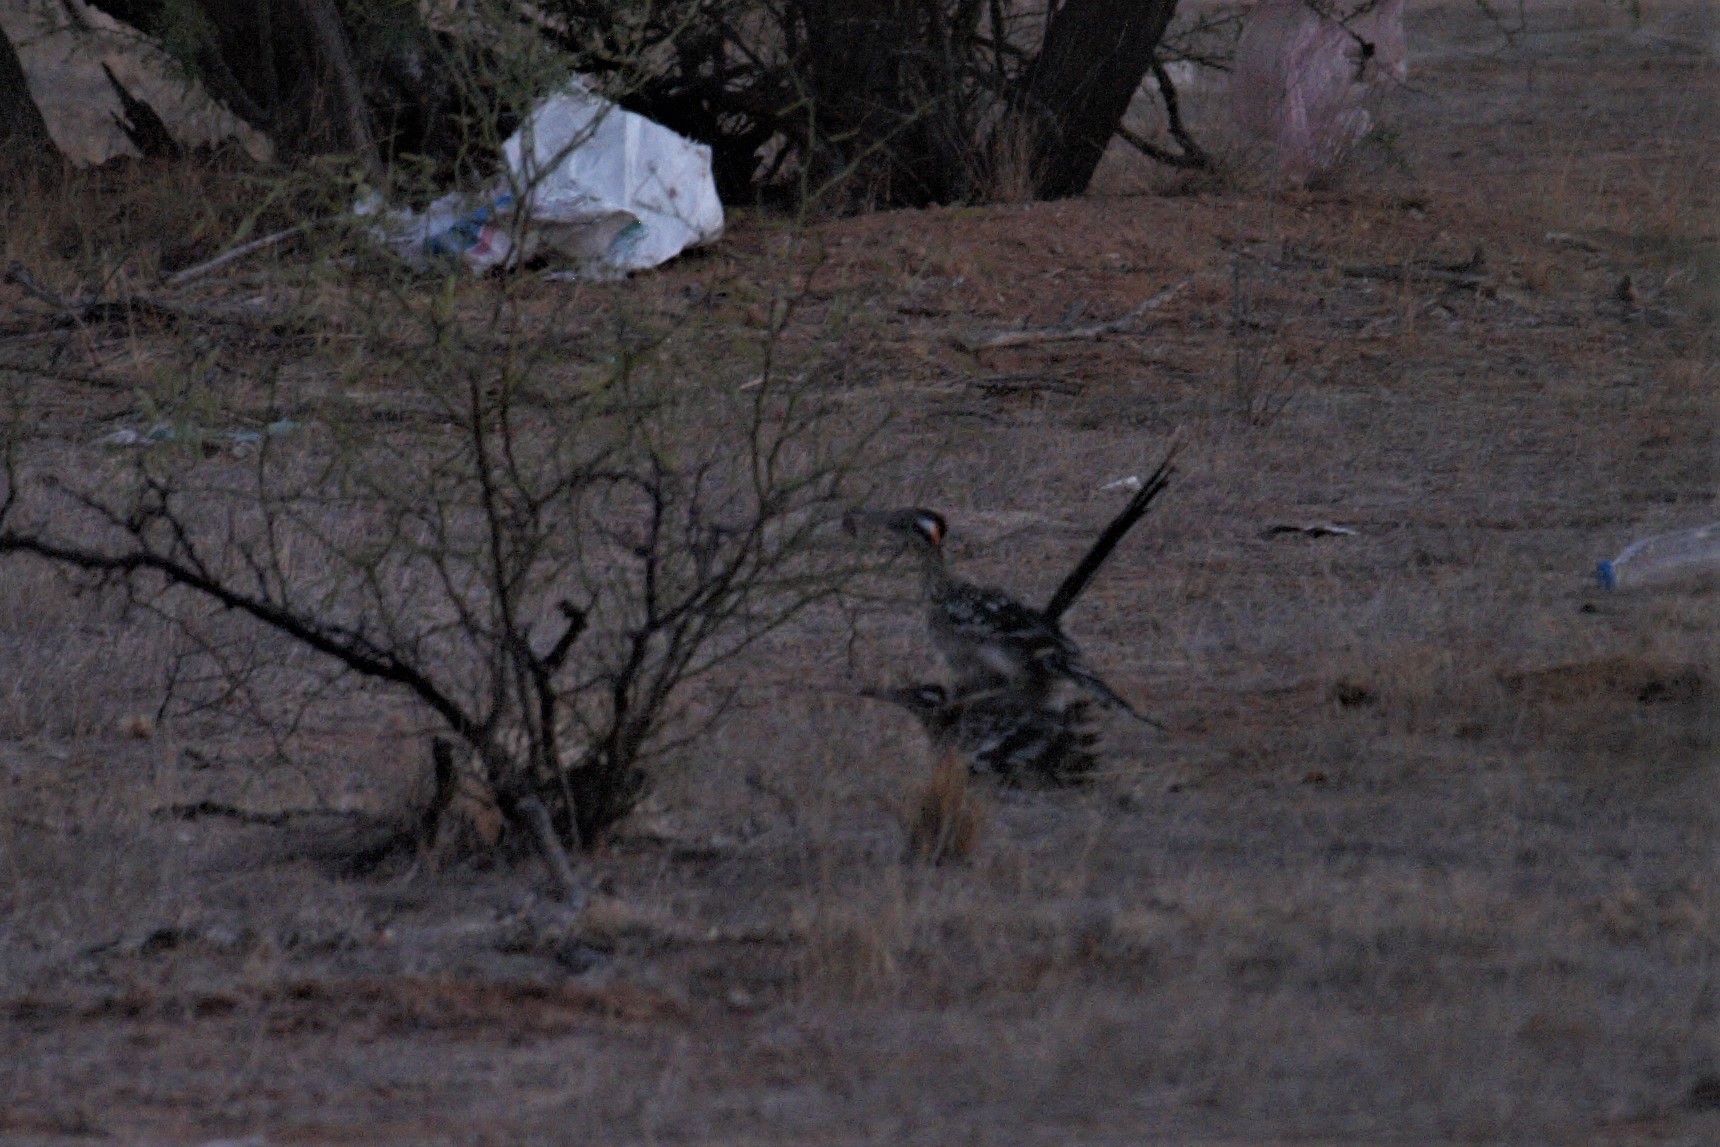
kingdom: Animalia
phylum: Chordata
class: Aves
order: Cuculiformes
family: Cuculidae
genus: Geococcyx
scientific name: Geococcyx californianus
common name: Greater roadrunner
